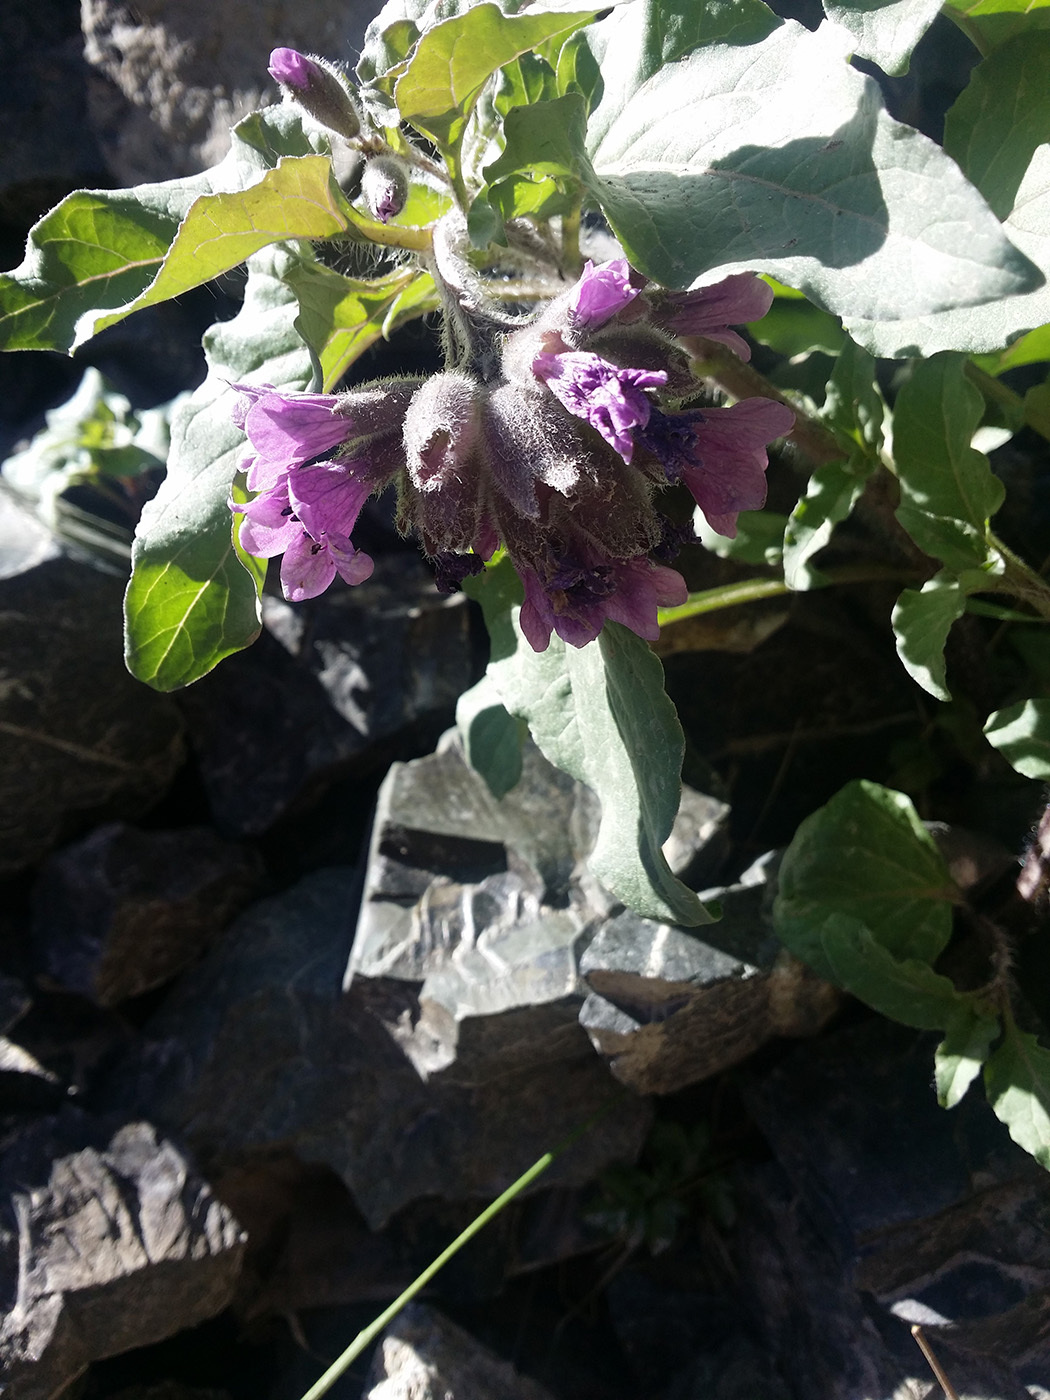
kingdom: Plantae
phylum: Tracheophyta
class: Magnoliopsida
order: Solanales
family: Solanaceae
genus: Physochlaina
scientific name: Physochlaina physaloides
